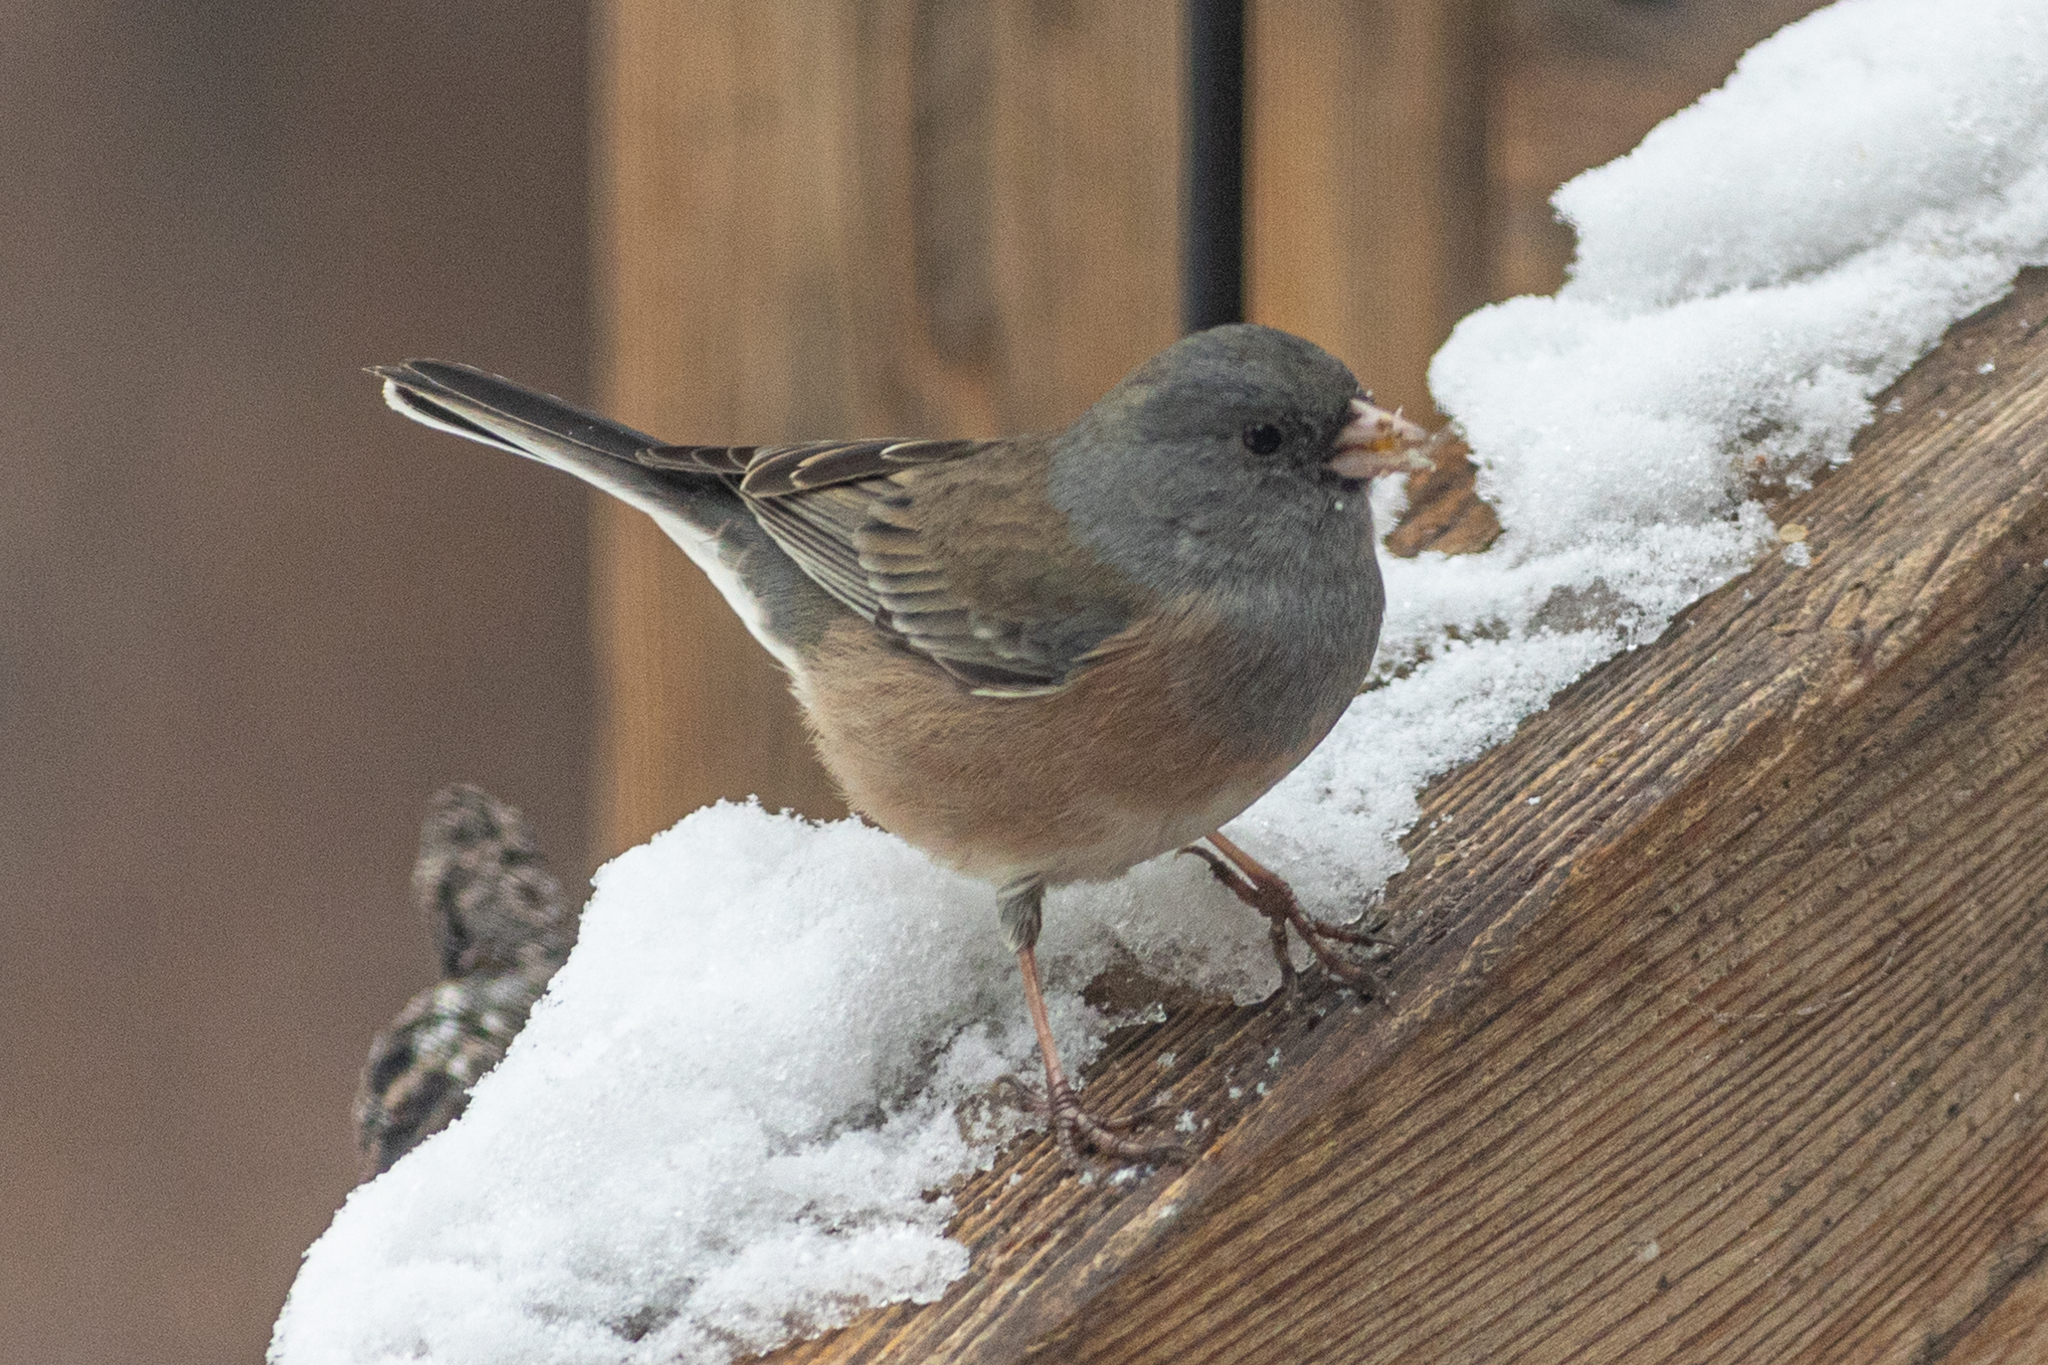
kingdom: Animalia
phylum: Chordata
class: Aves
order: Passeriformes
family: Passerellidae
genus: Junco
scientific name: Junco hyemalis
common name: Dark-eyed junco
